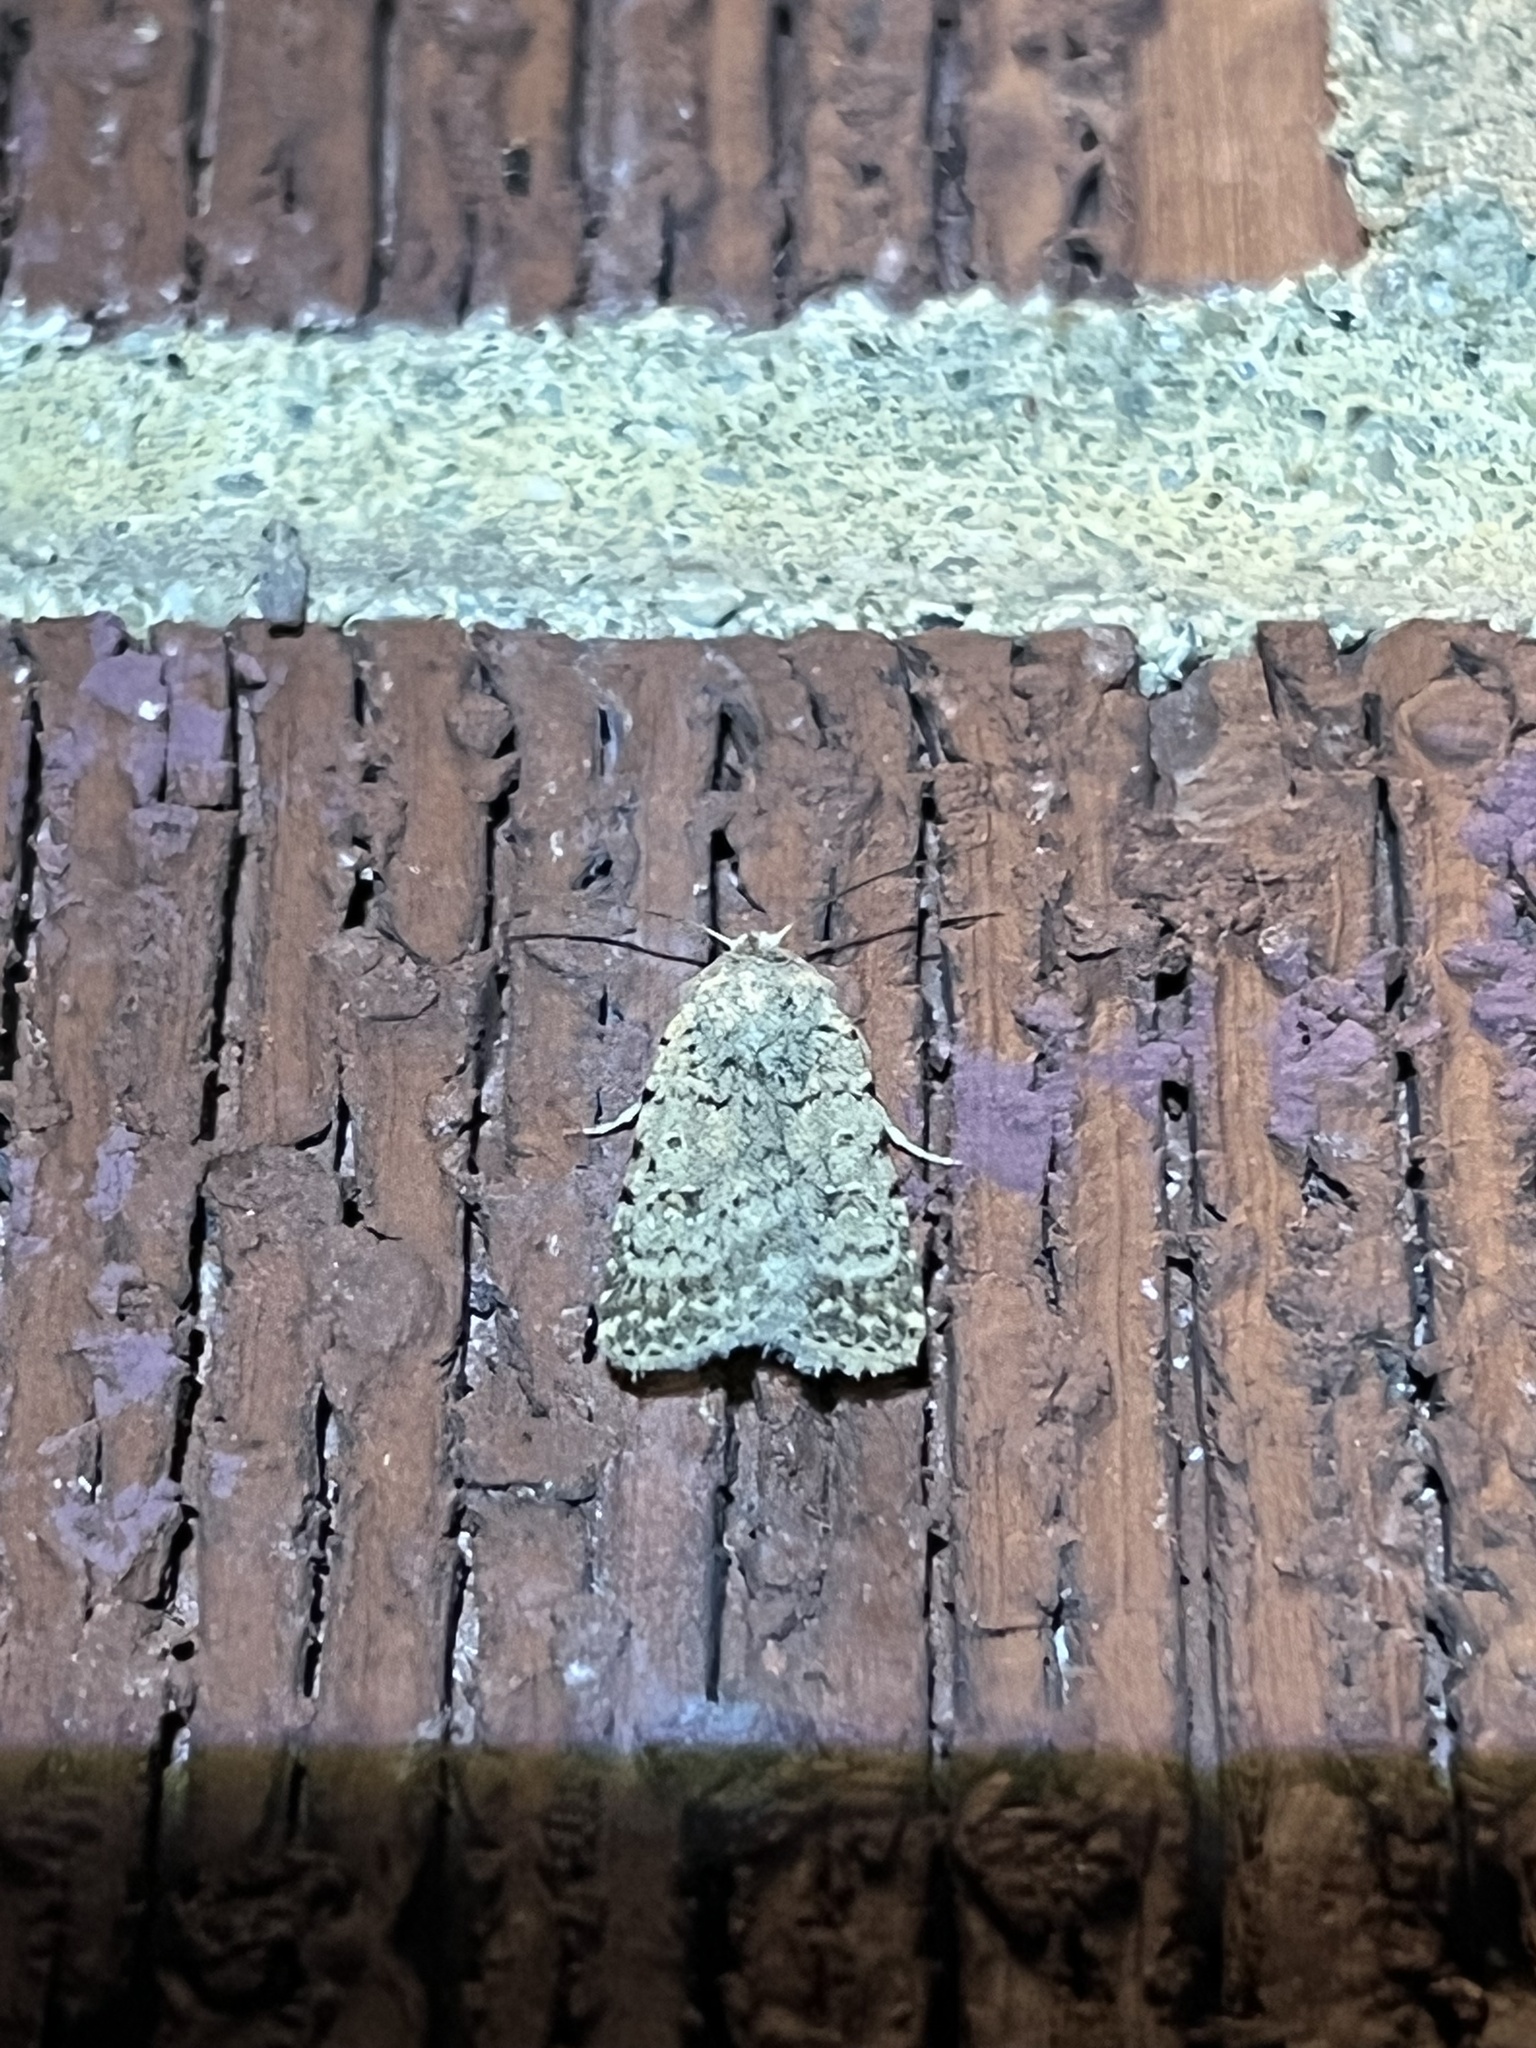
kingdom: Animalia
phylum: Arthropoda
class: Insecta
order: Lepidoptera
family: Noctuidae
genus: Caradrina
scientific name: Caradrina clavipalpis
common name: Pale mottled willow
